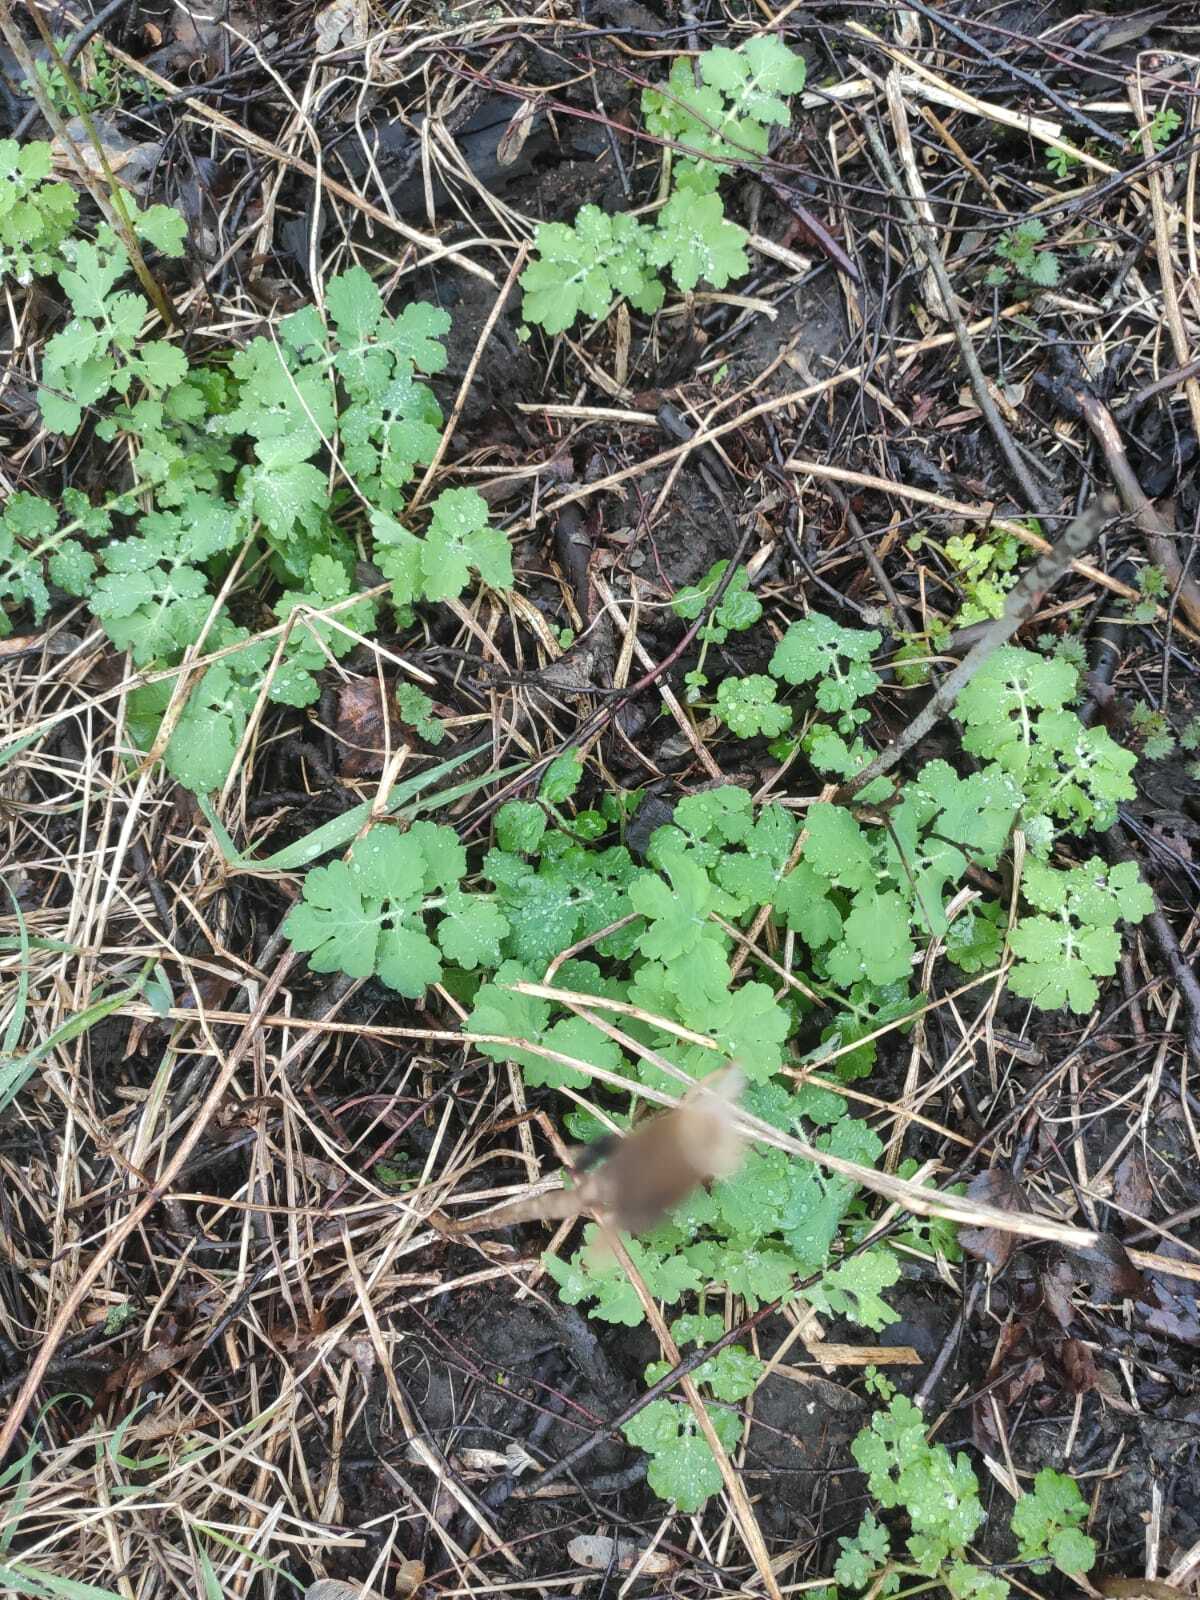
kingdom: Plantae
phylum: Tracheophyta
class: Magnoliopsida
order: Ranunculales
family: Papaveraceae
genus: Chelidonium
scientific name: Chelidonium majus
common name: Greater celandine
